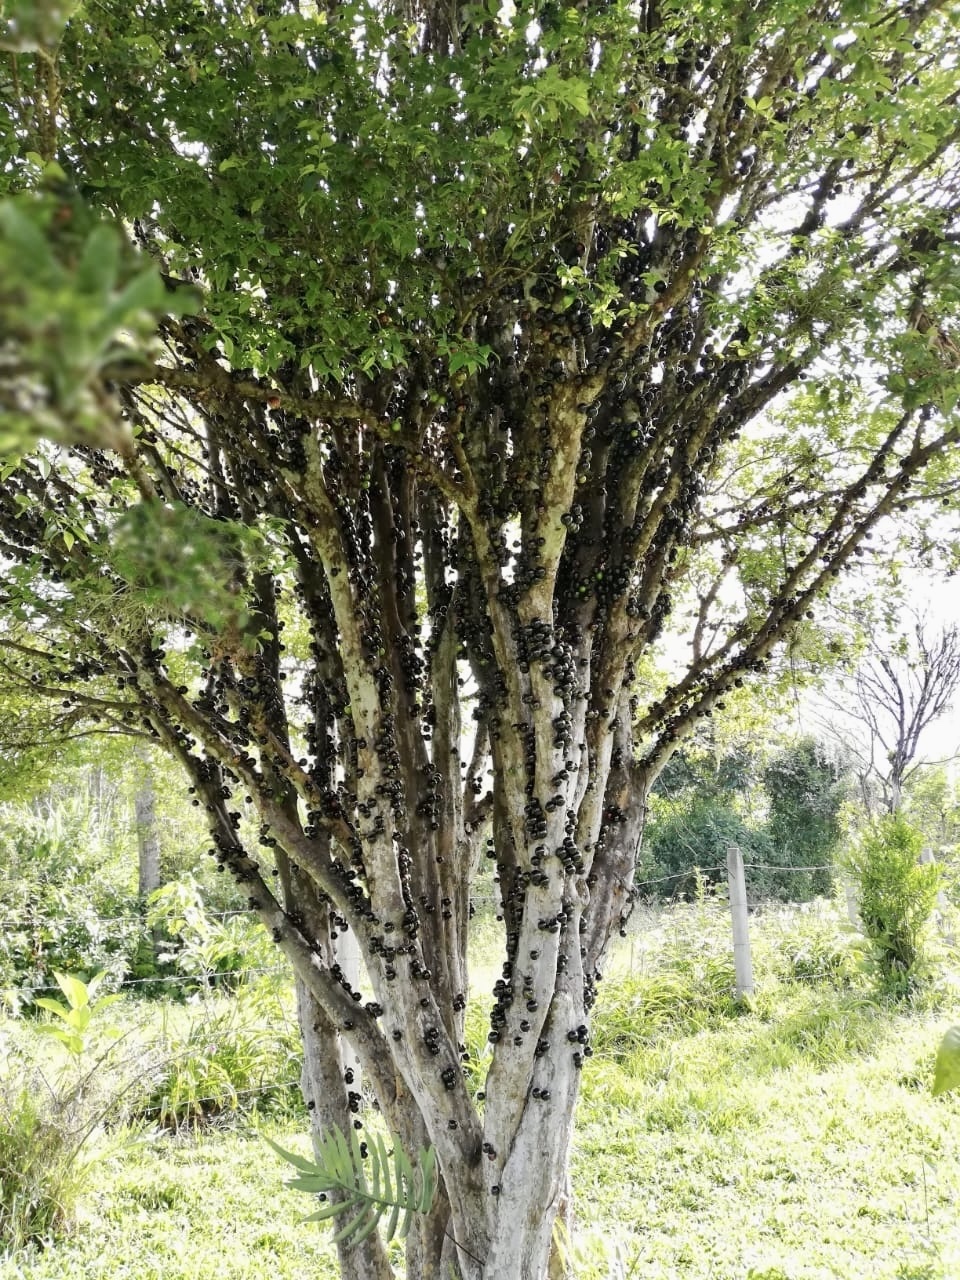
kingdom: Plantae
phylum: Tracheophyta
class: Magnoliopsida
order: Myrtales
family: Myrtaceae
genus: Plinia
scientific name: Plinia cauliflora
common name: Brazilian grapetree
